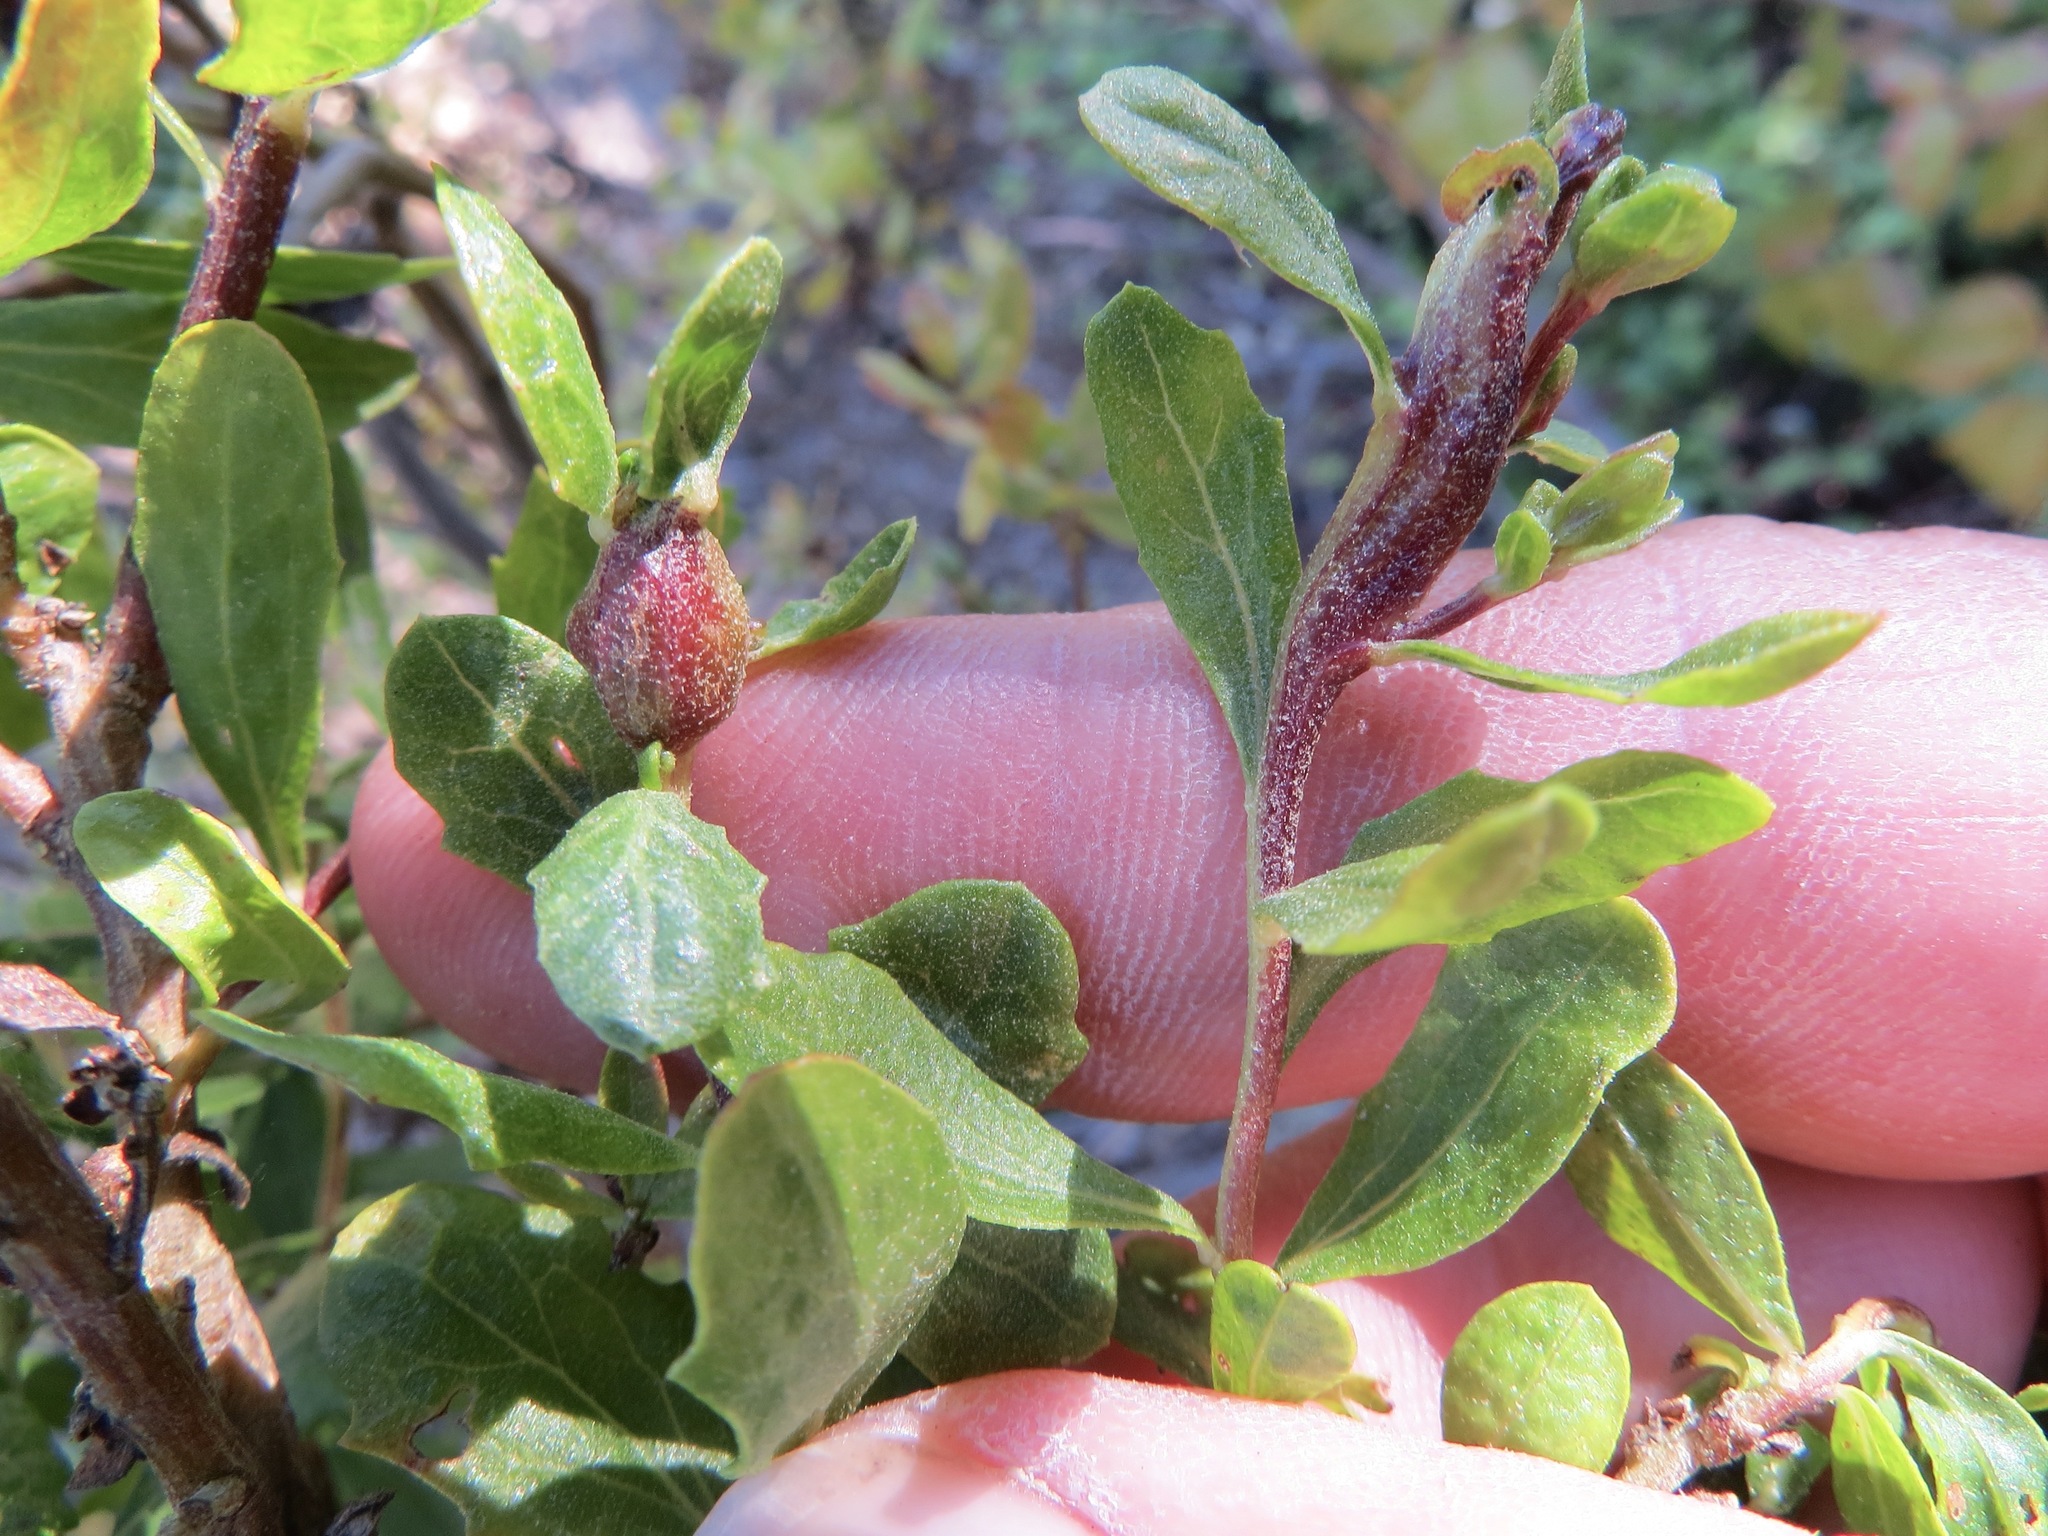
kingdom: Animalia
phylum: Arthropoda
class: Insecta
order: Diptera
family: Cecidomyiidae
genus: Rhopalomyia
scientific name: Rhopalomyia baccharis
